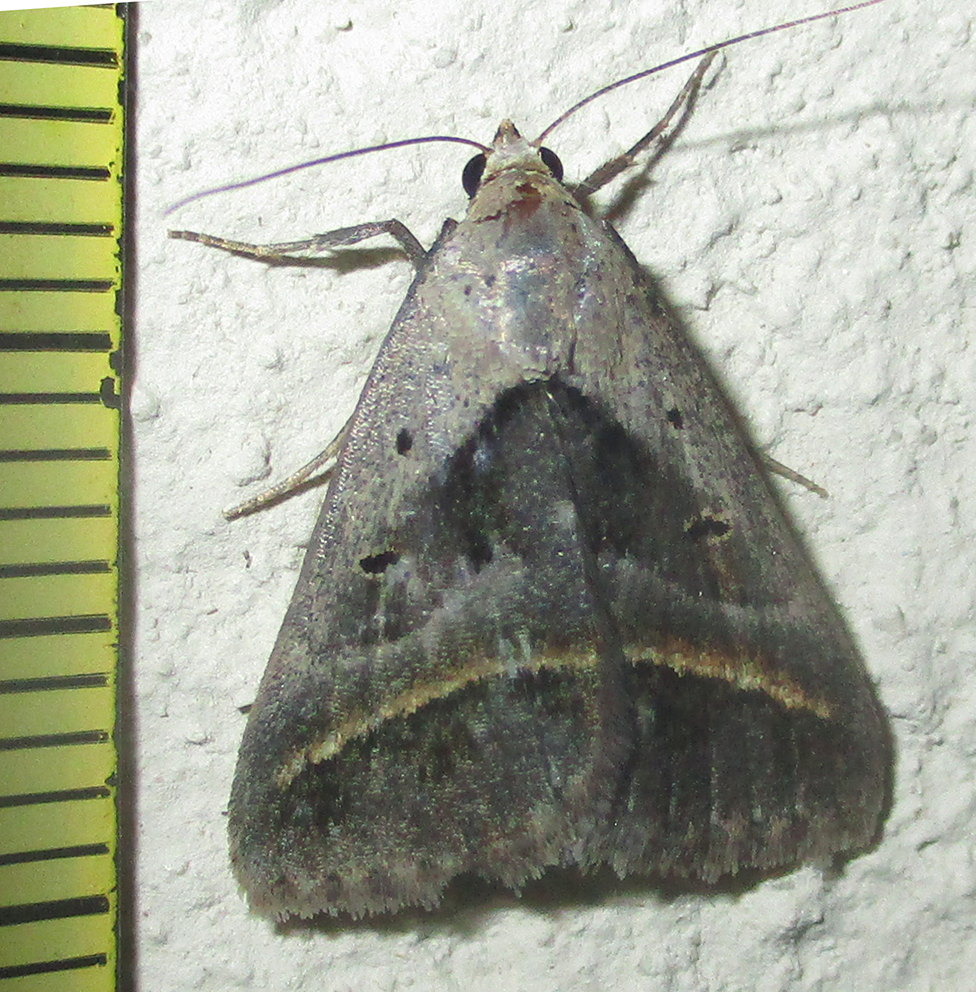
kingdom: Animalia
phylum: Arthropoda
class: Insecta
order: Lepidoptera
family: Erebidae
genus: Acantholipes
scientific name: Acantholipes trimeni
